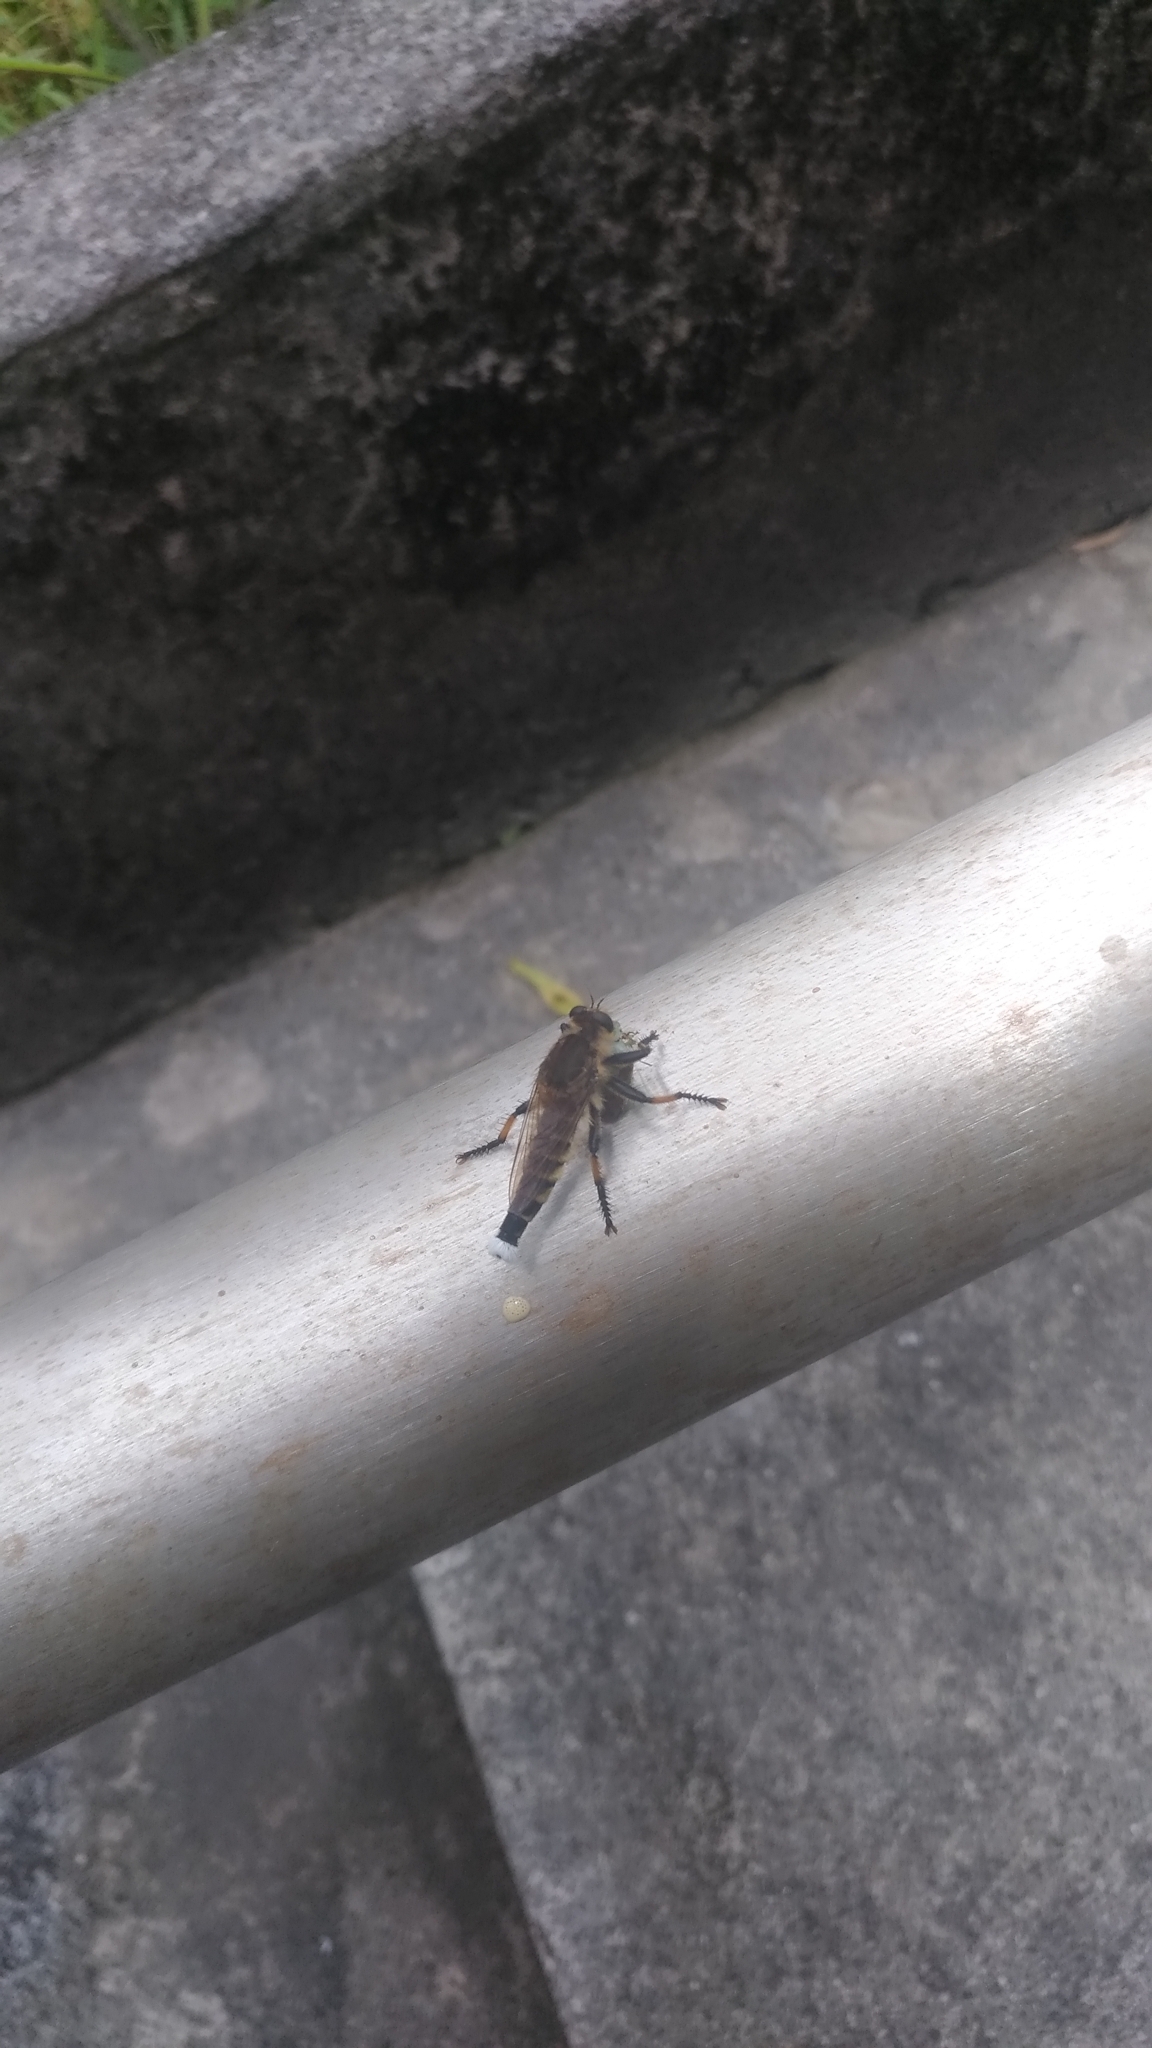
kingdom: Animalia
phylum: Arthropoda
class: Insecta
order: Diptera
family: Asilidae
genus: Promachus
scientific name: Promachus yesonicus
